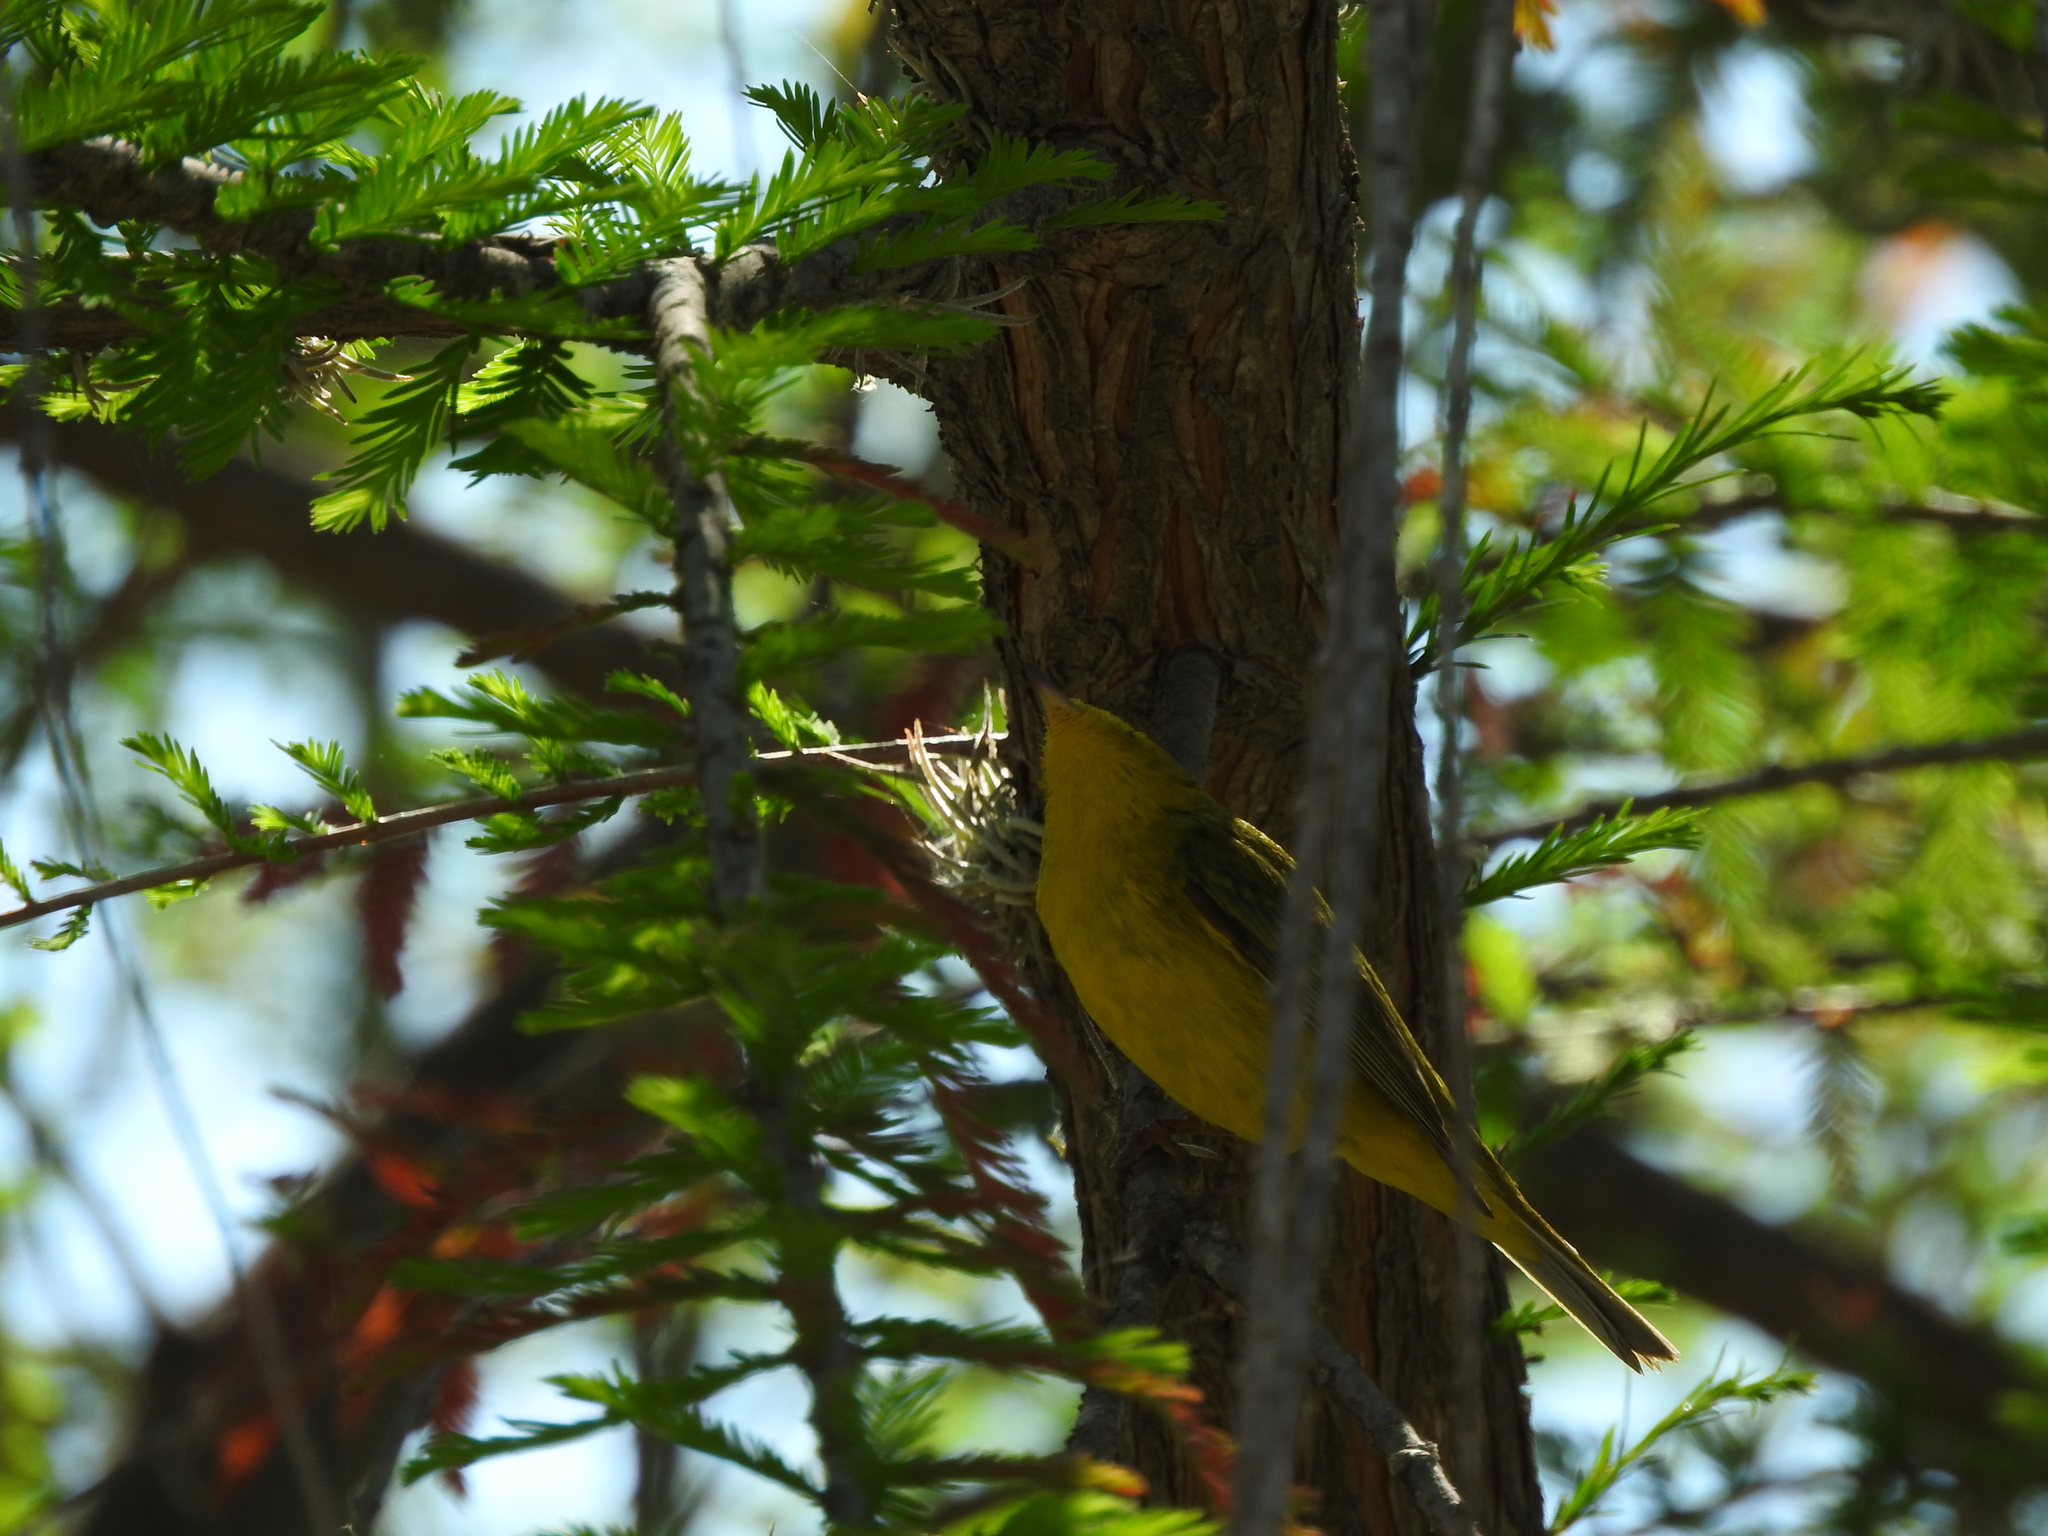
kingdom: Animalia
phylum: Chordata
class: Aves
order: Passeriformes
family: Parulidae
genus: Cardellina
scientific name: Cardellina pusilla
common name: Wilson's warbler
